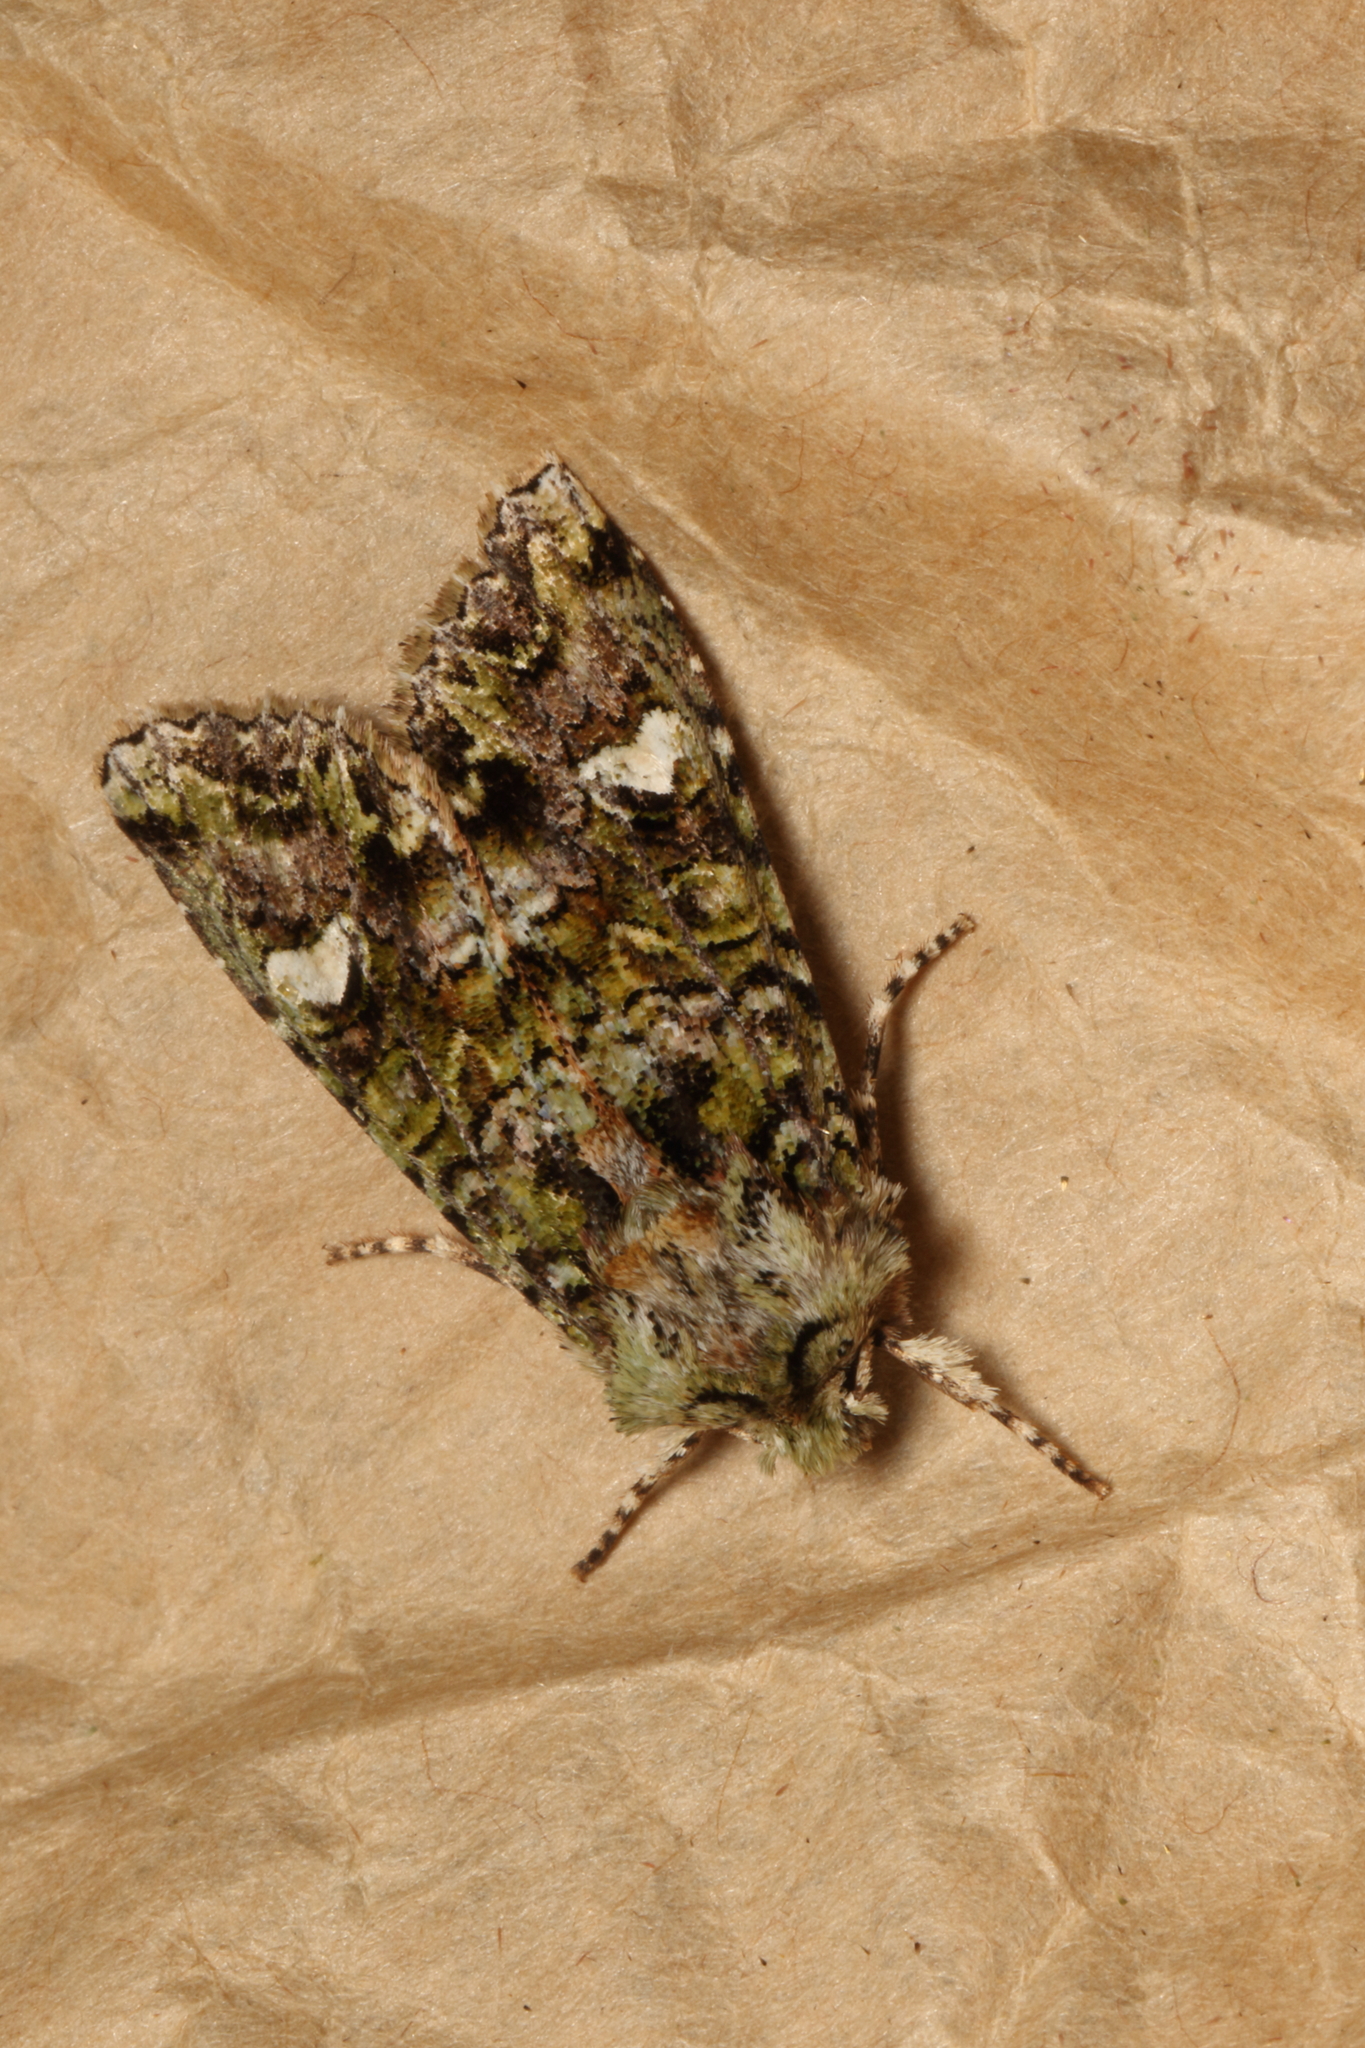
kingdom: Animalia
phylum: Arthropoda
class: Insecta
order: Lepidoptera
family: Noctuidae
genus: Ichneutica
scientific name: Ichneutica
